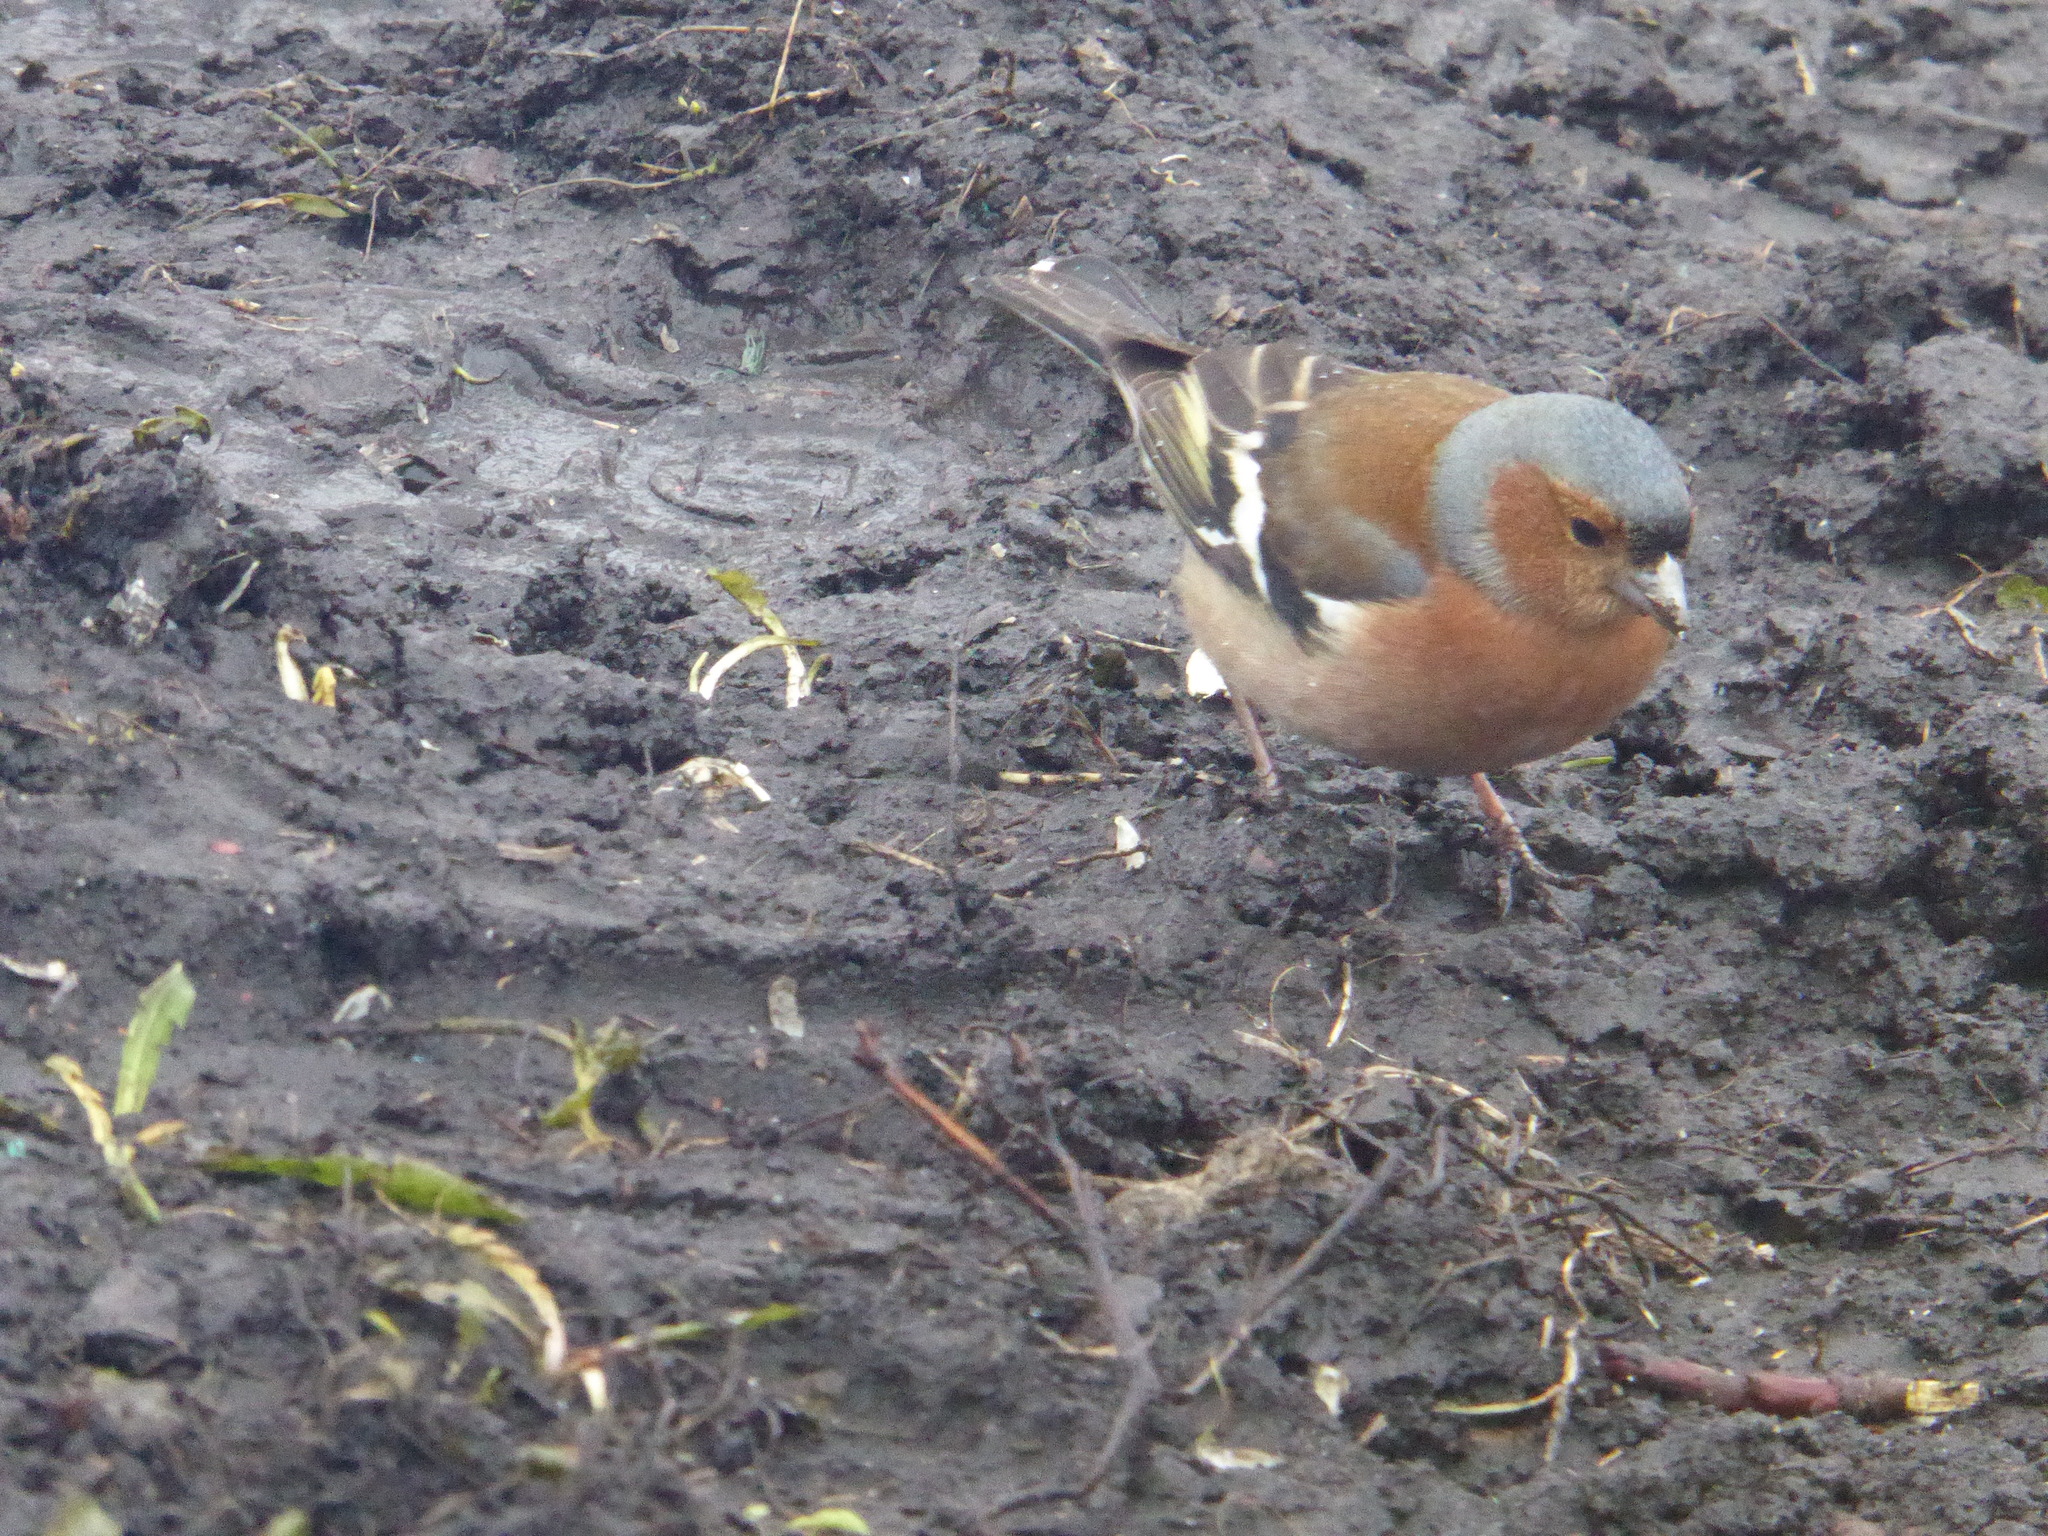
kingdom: Animalia
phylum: Chordata
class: Aves
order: Passeriformes
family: Fringillidae
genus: Fringilla
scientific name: Fringilla coelebs
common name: Common chaffinch
